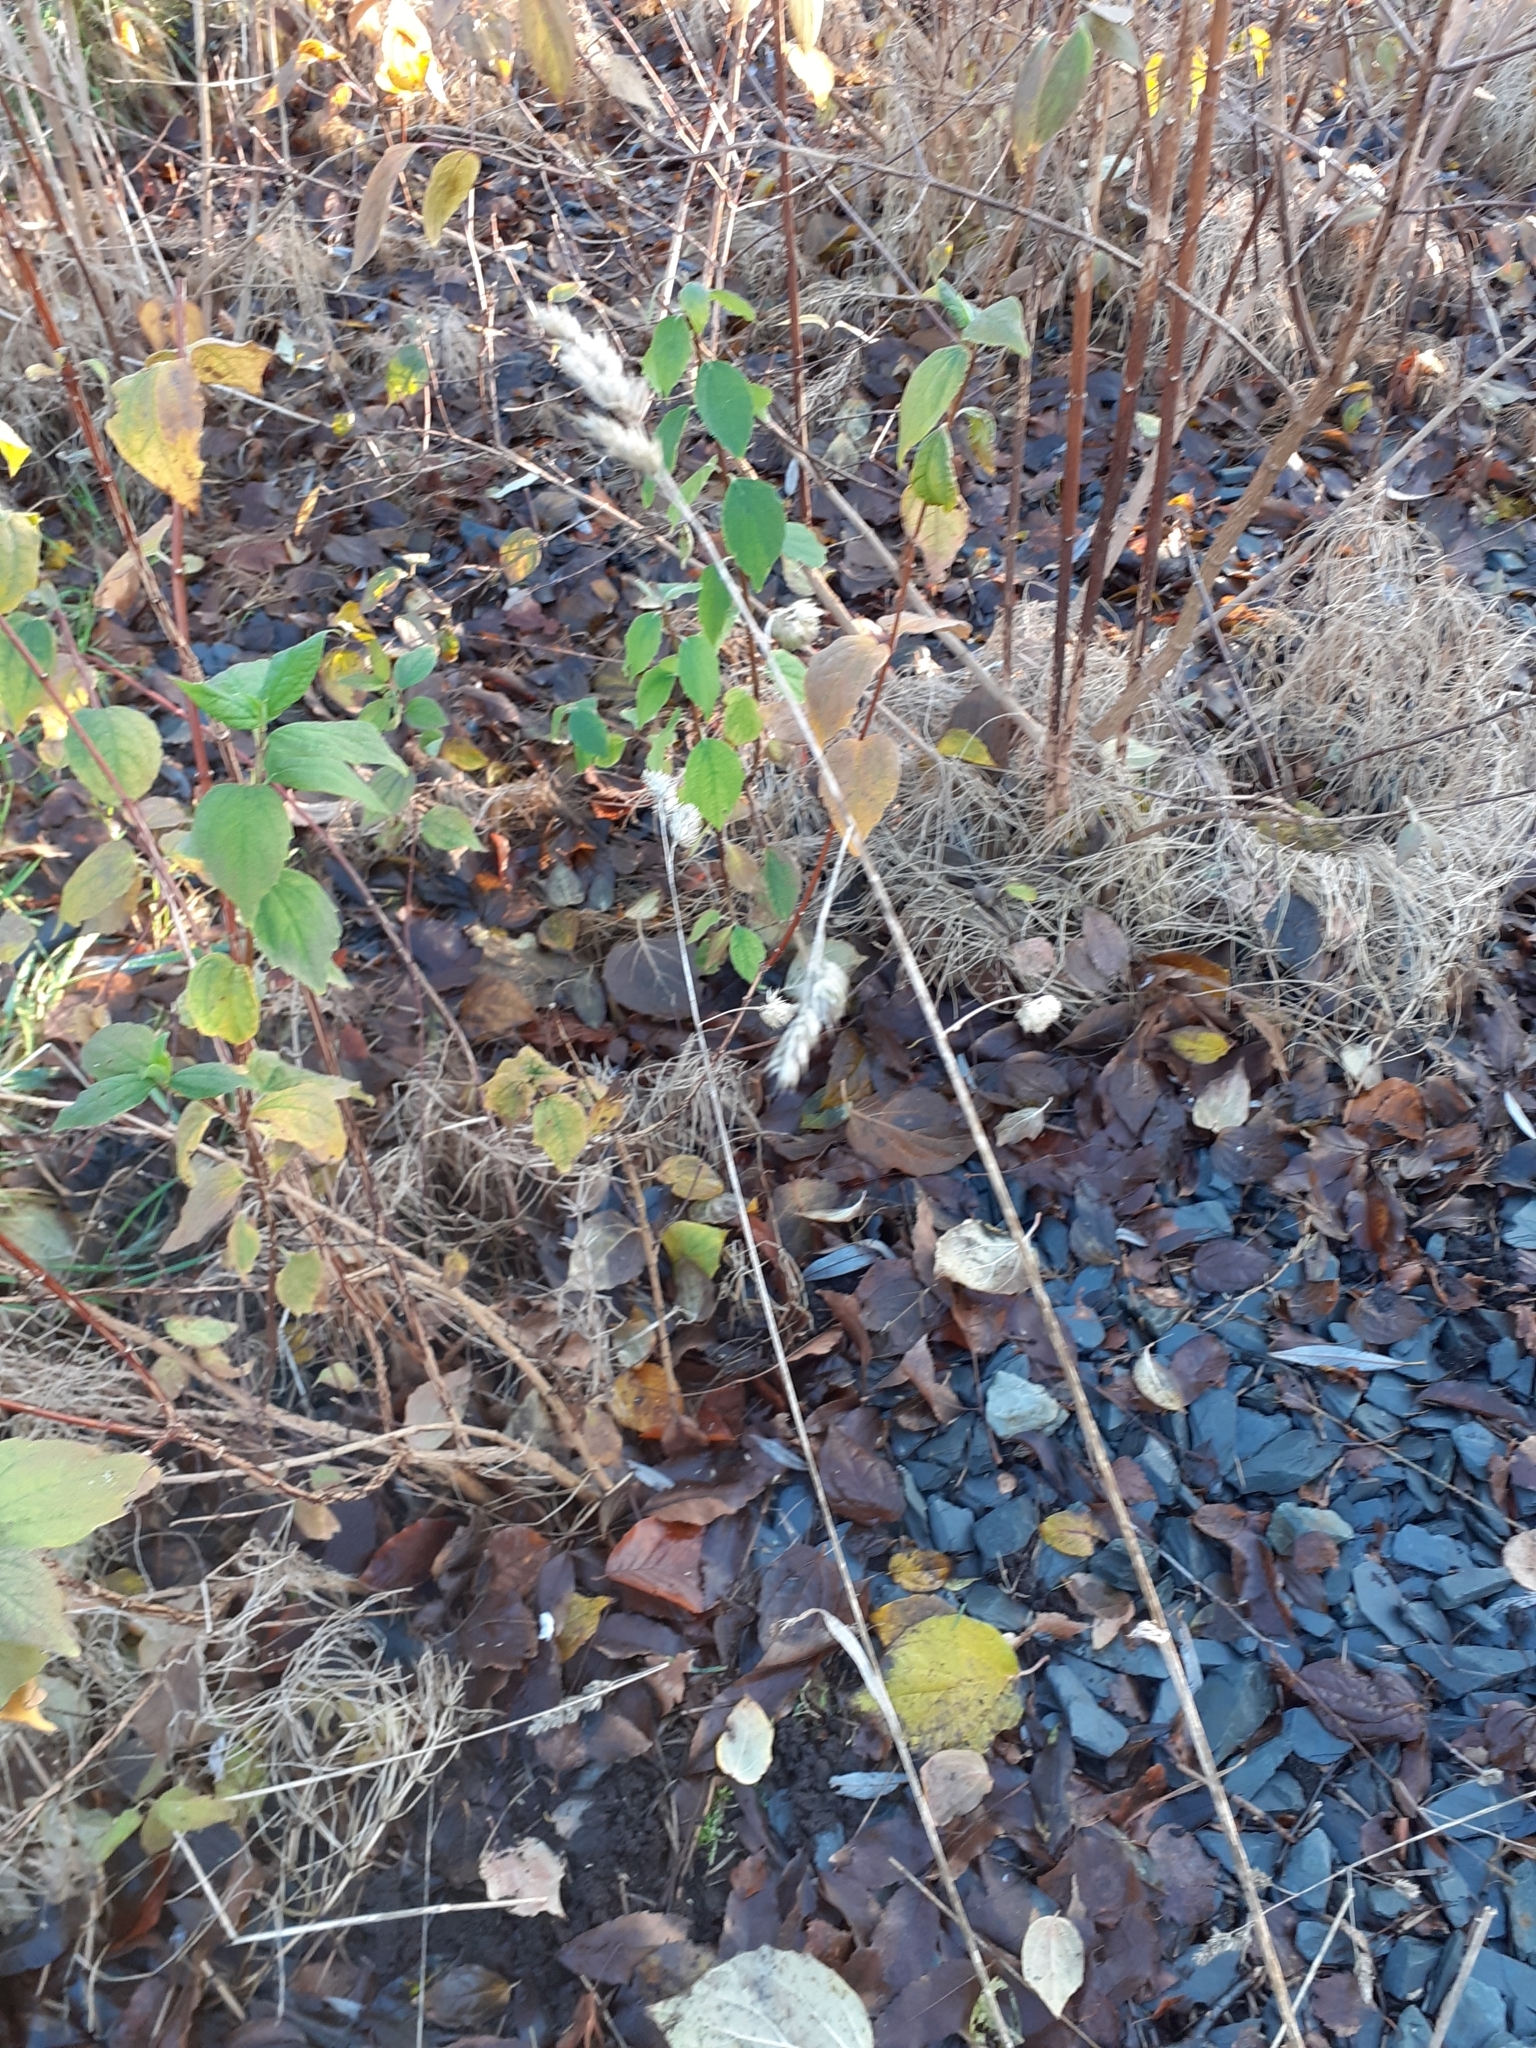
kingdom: Plantae
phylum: Tracheophyta
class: Liliopsida
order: Poales
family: Poaceae
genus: Dactylis
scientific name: Dactylis glomerata
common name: Orchardgrass
